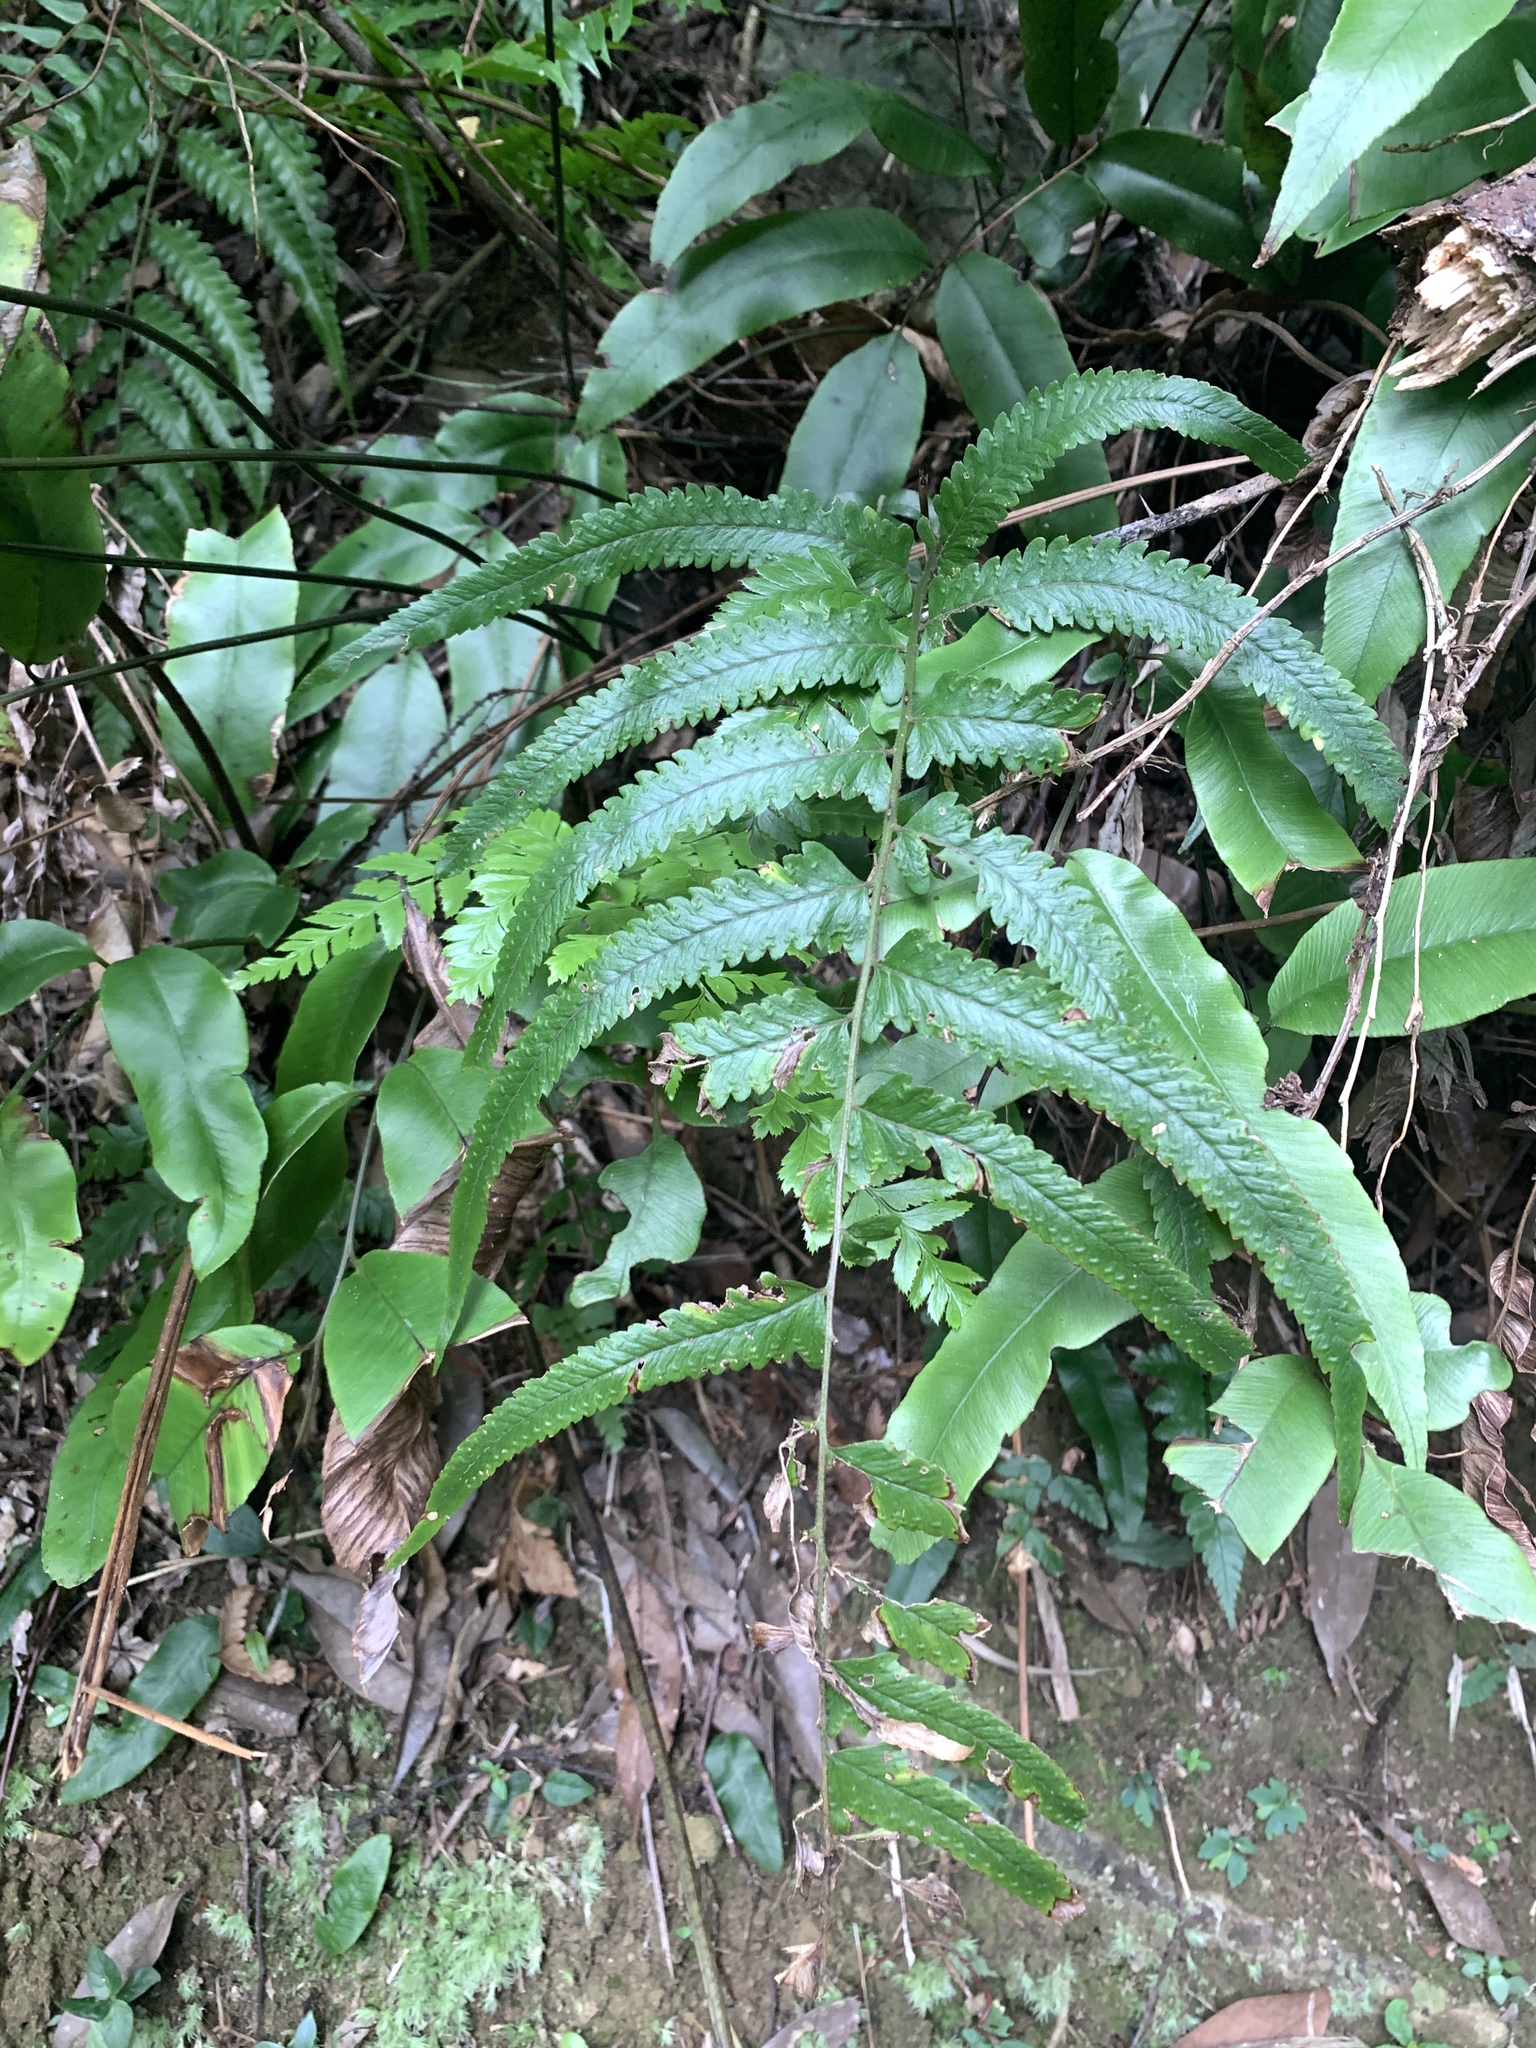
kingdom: Plantae
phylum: Tracheophyta
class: Polypodiopsida
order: Polypodiales
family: Dennstaedtiaceae
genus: Microlepia
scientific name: Microlepia marginata
